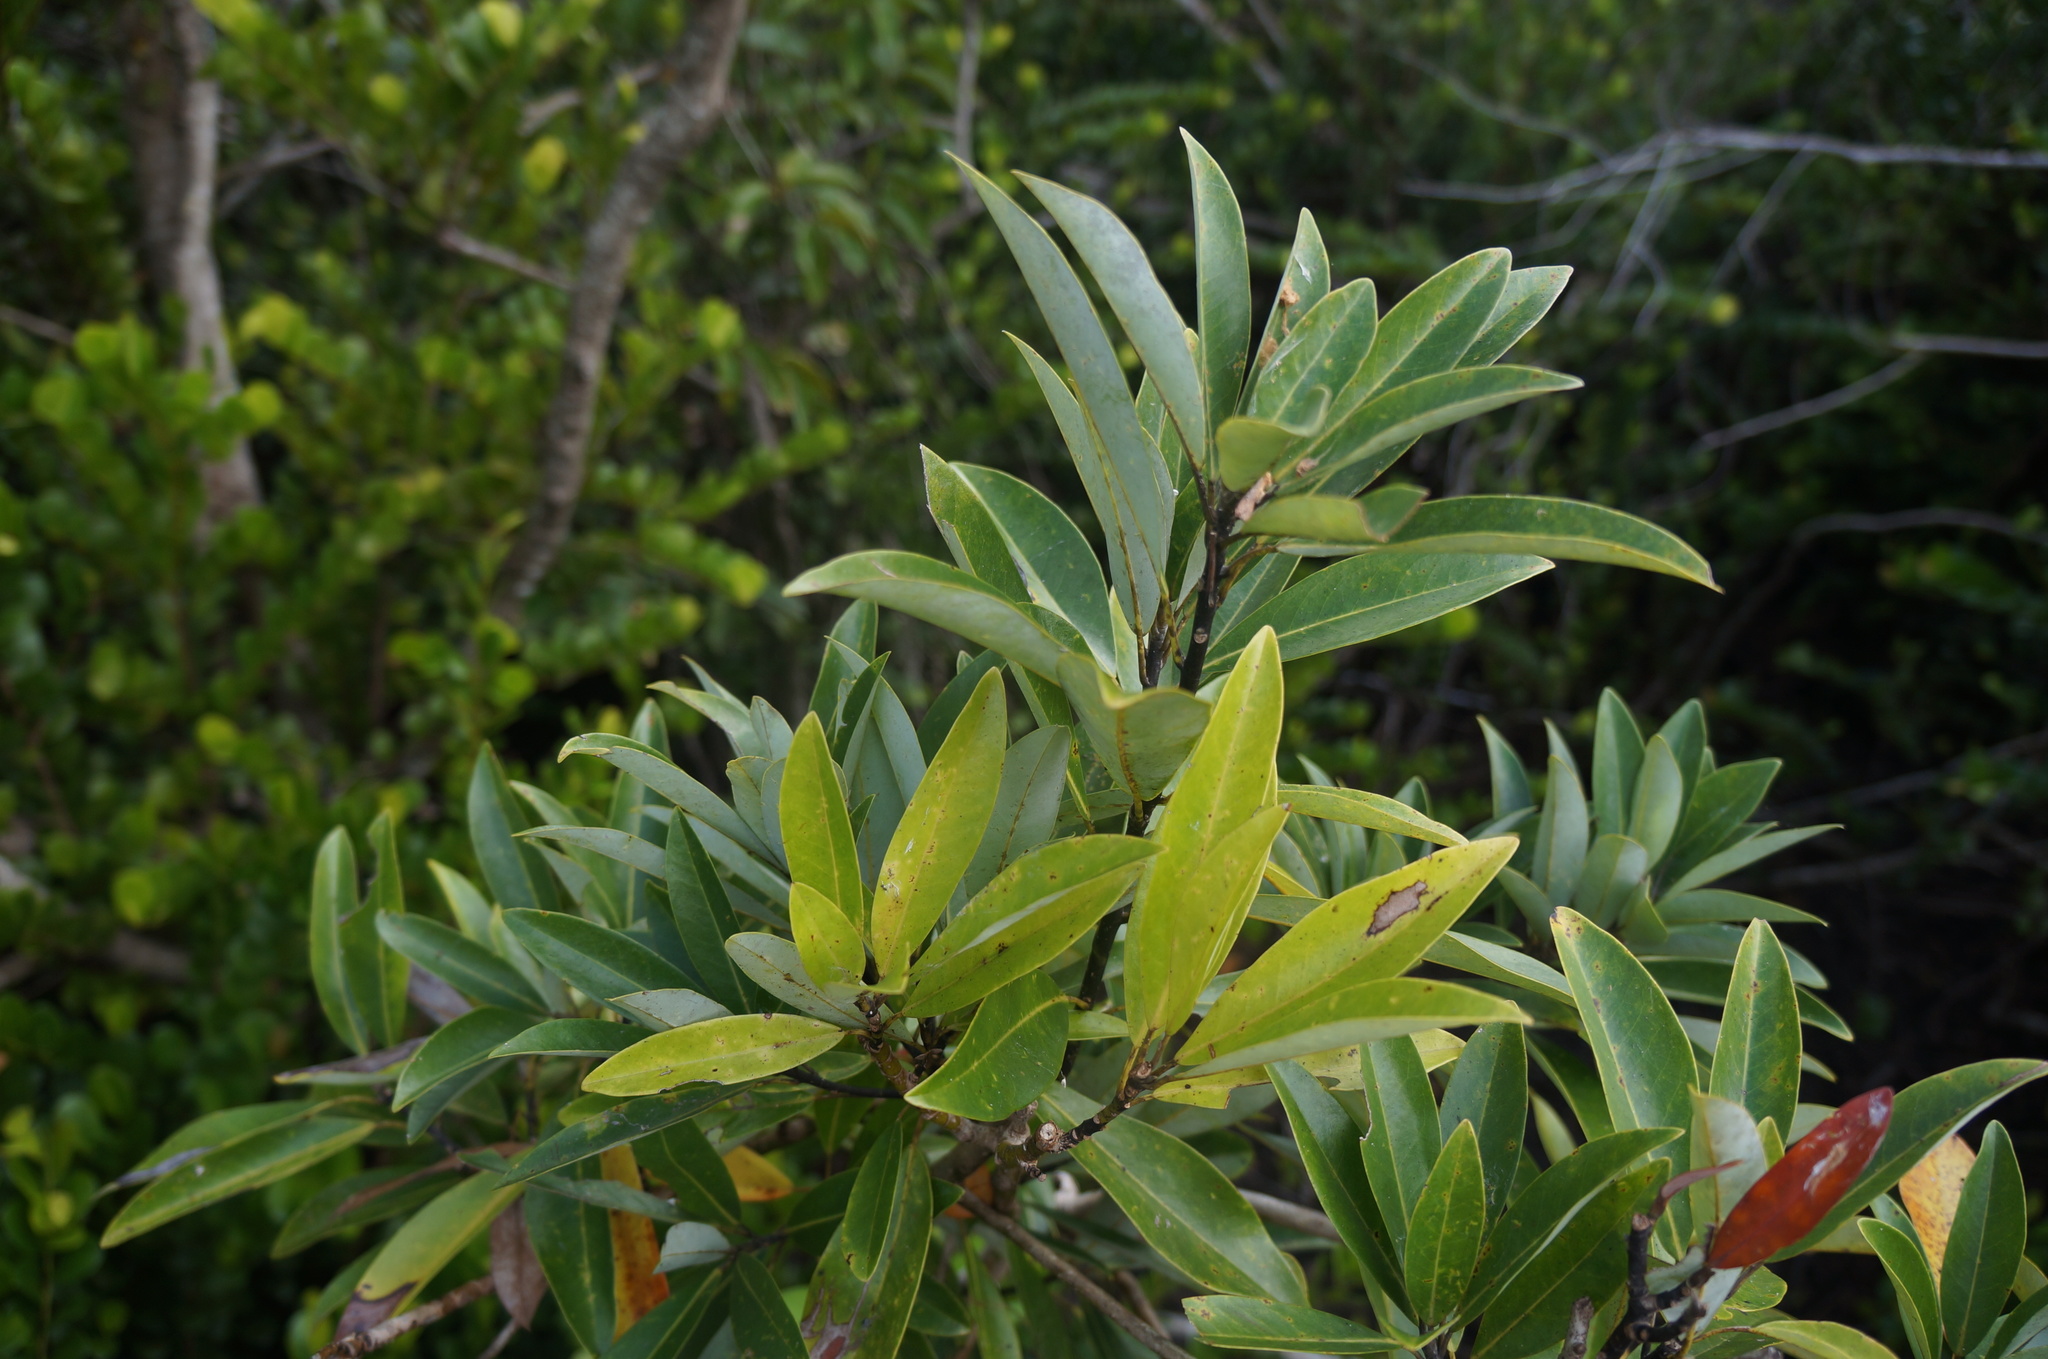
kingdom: Plantae
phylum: Tracheophyta
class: Magnoliopsida
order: Magnoliales
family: Magnoliaceae
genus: Magnolia
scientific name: Magnolia virginiana
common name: Swamp bay
